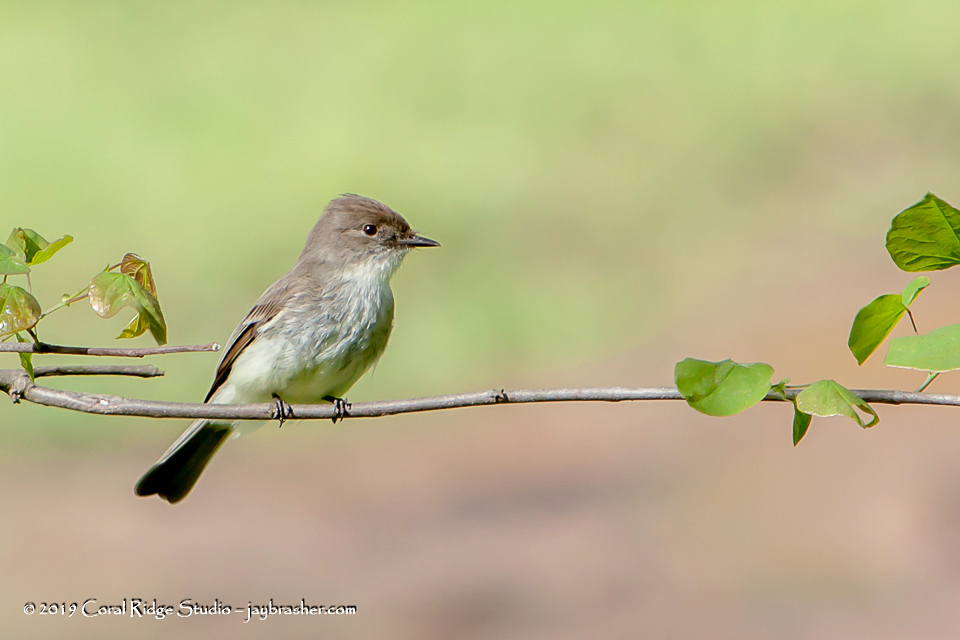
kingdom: Animalia
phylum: Chordata
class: Aves
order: Passeriformes
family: Tyrannidae
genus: Sayornis
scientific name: Sayornis phoebe
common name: Eastern phoebe
